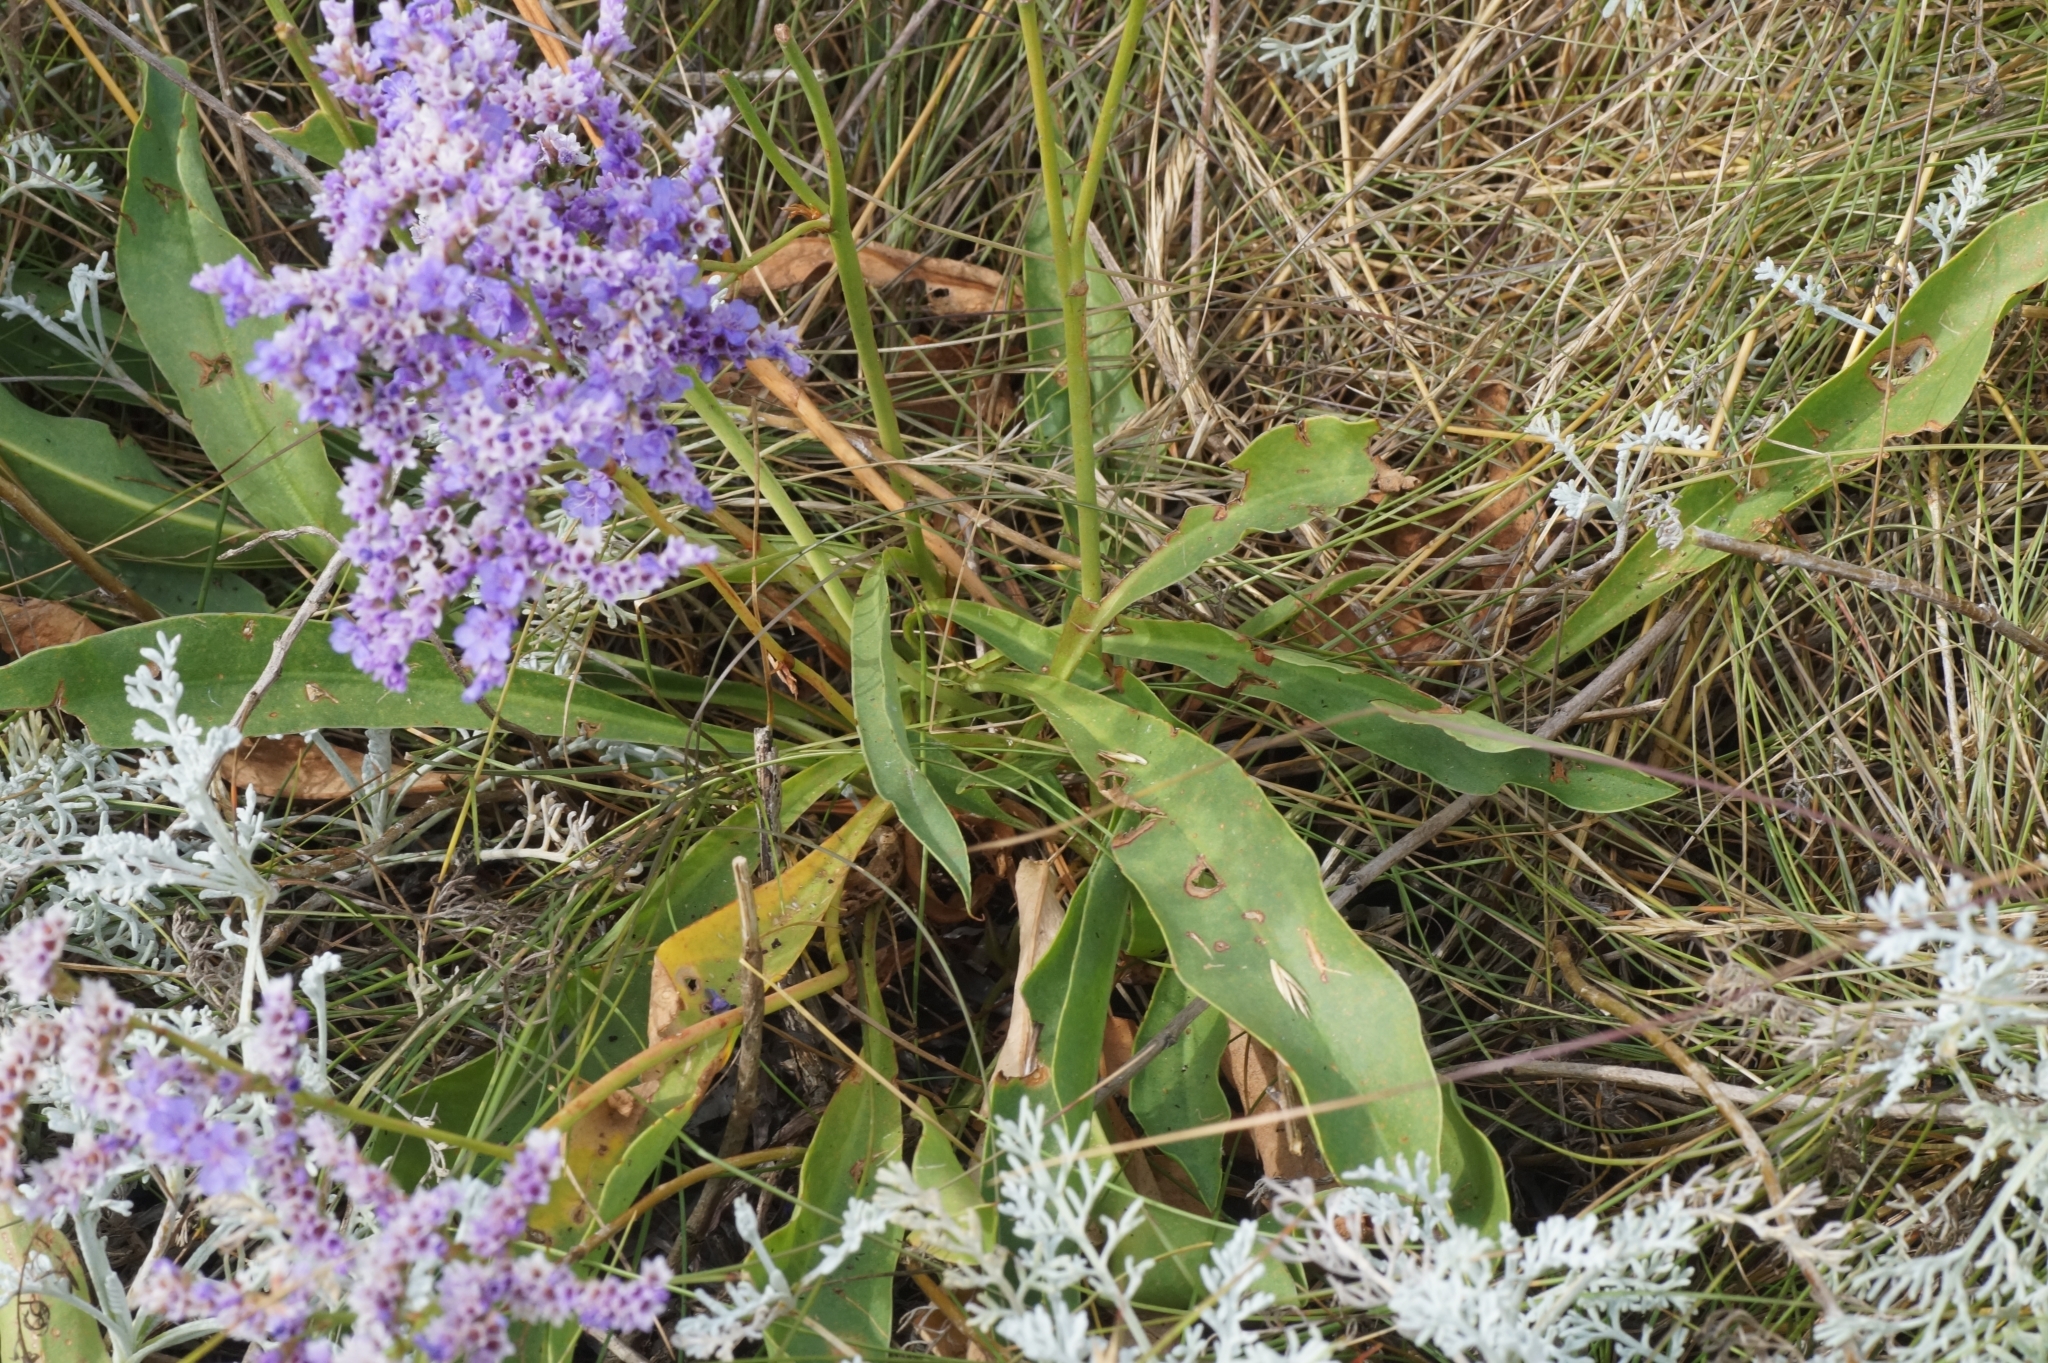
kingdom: Plantae
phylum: Tracheophyta
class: Magnoliopsida
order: Caryophyllales
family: Plumbaginaceae
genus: Limonium
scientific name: Limonium vulgare
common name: Common sea-lavender
